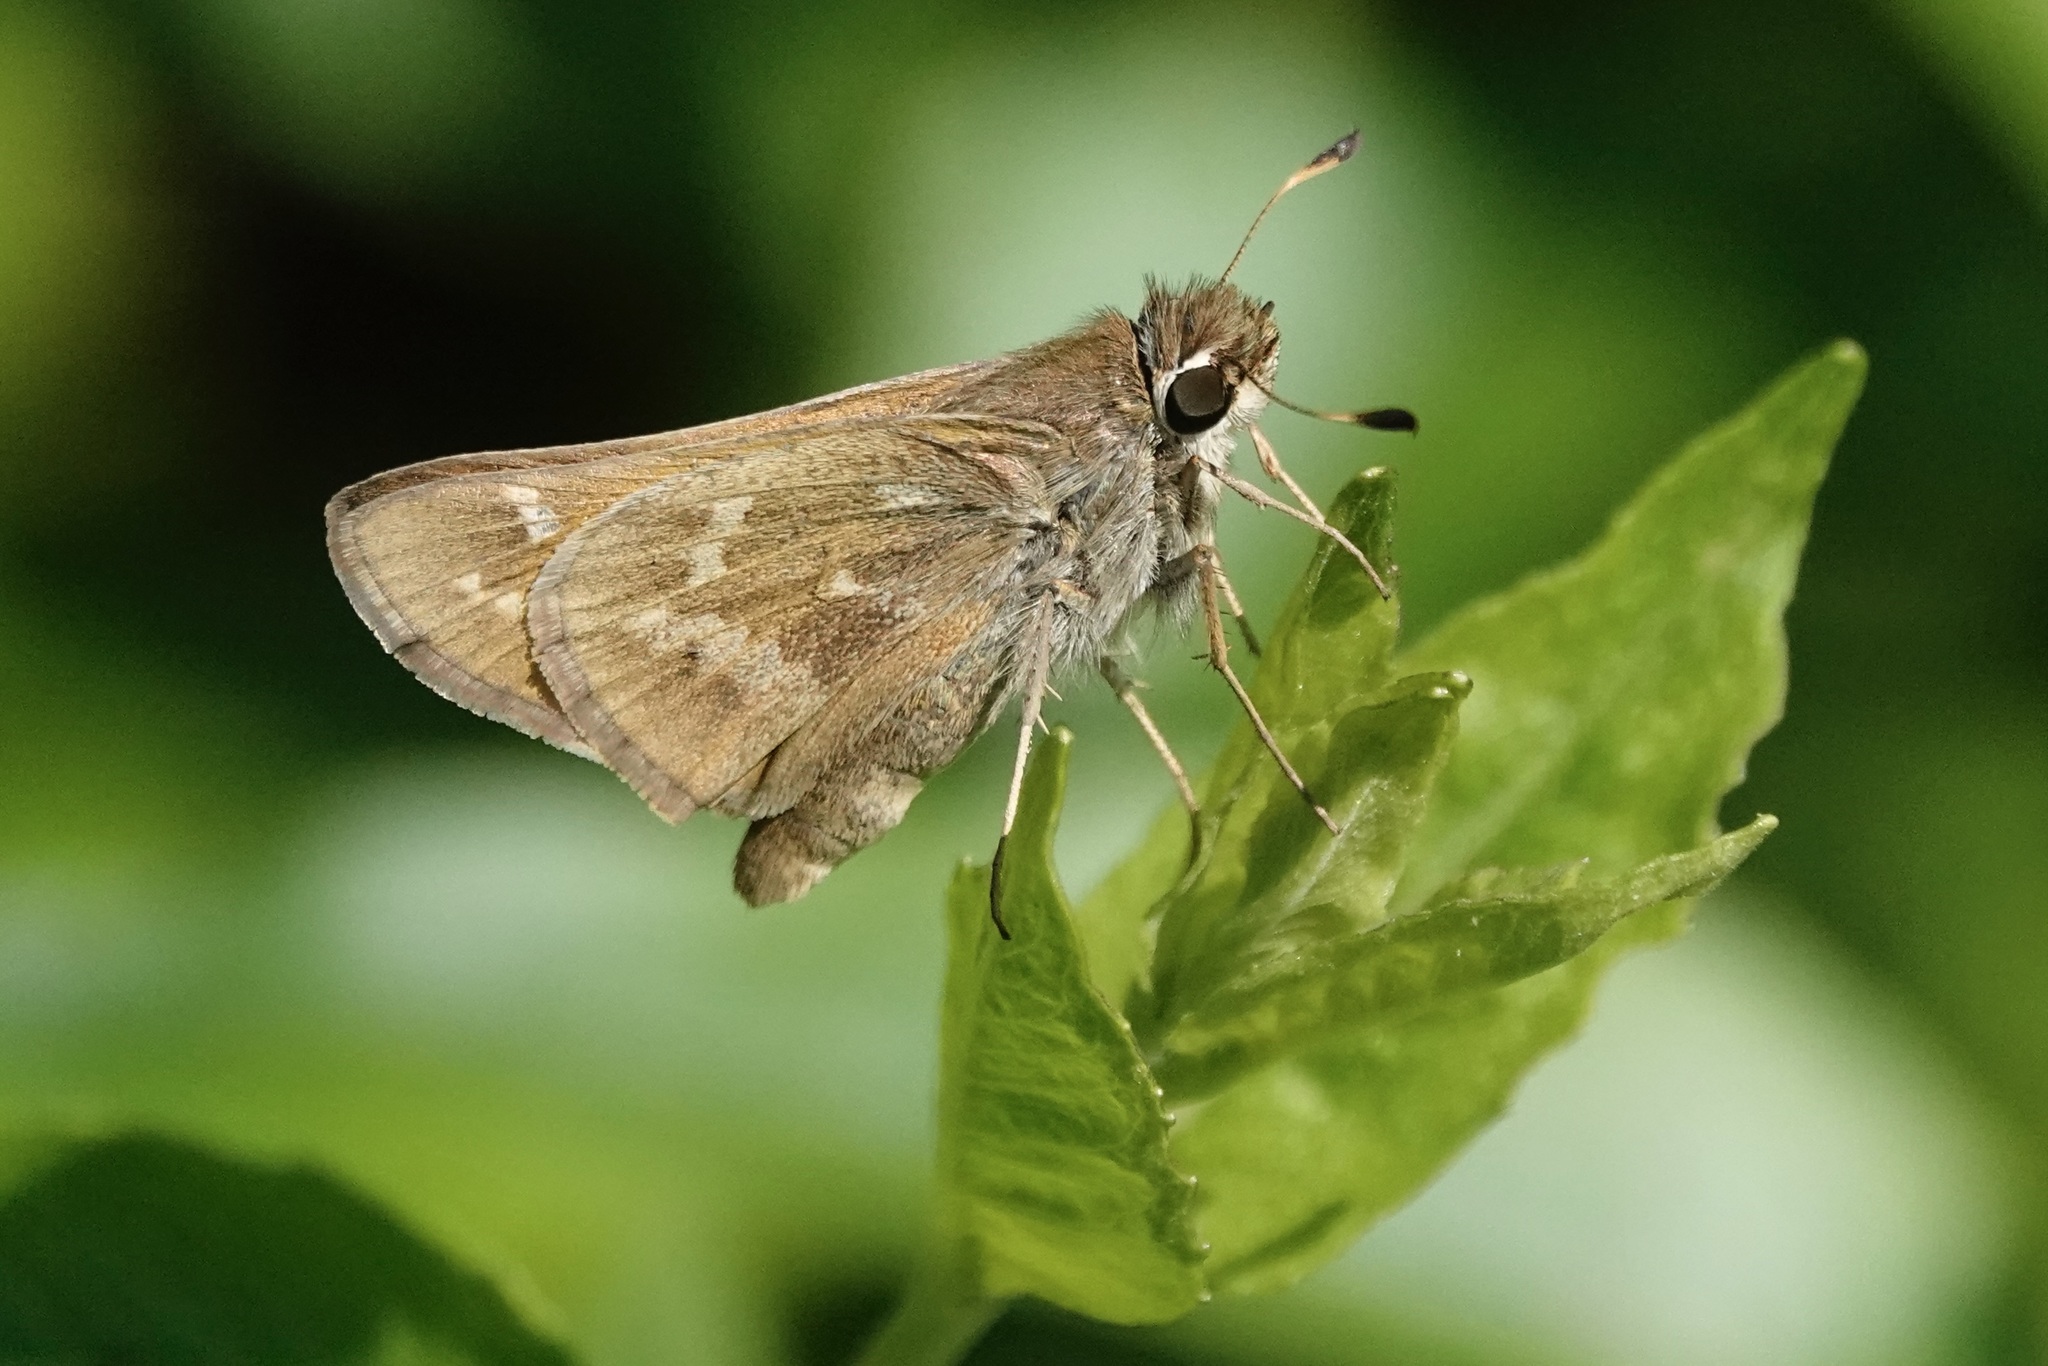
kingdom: Animalia
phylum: Arthropoda
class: Insecta
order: Lepidoptera
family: Hesperiidae
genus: Atalopedes
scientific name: Atalopedes
